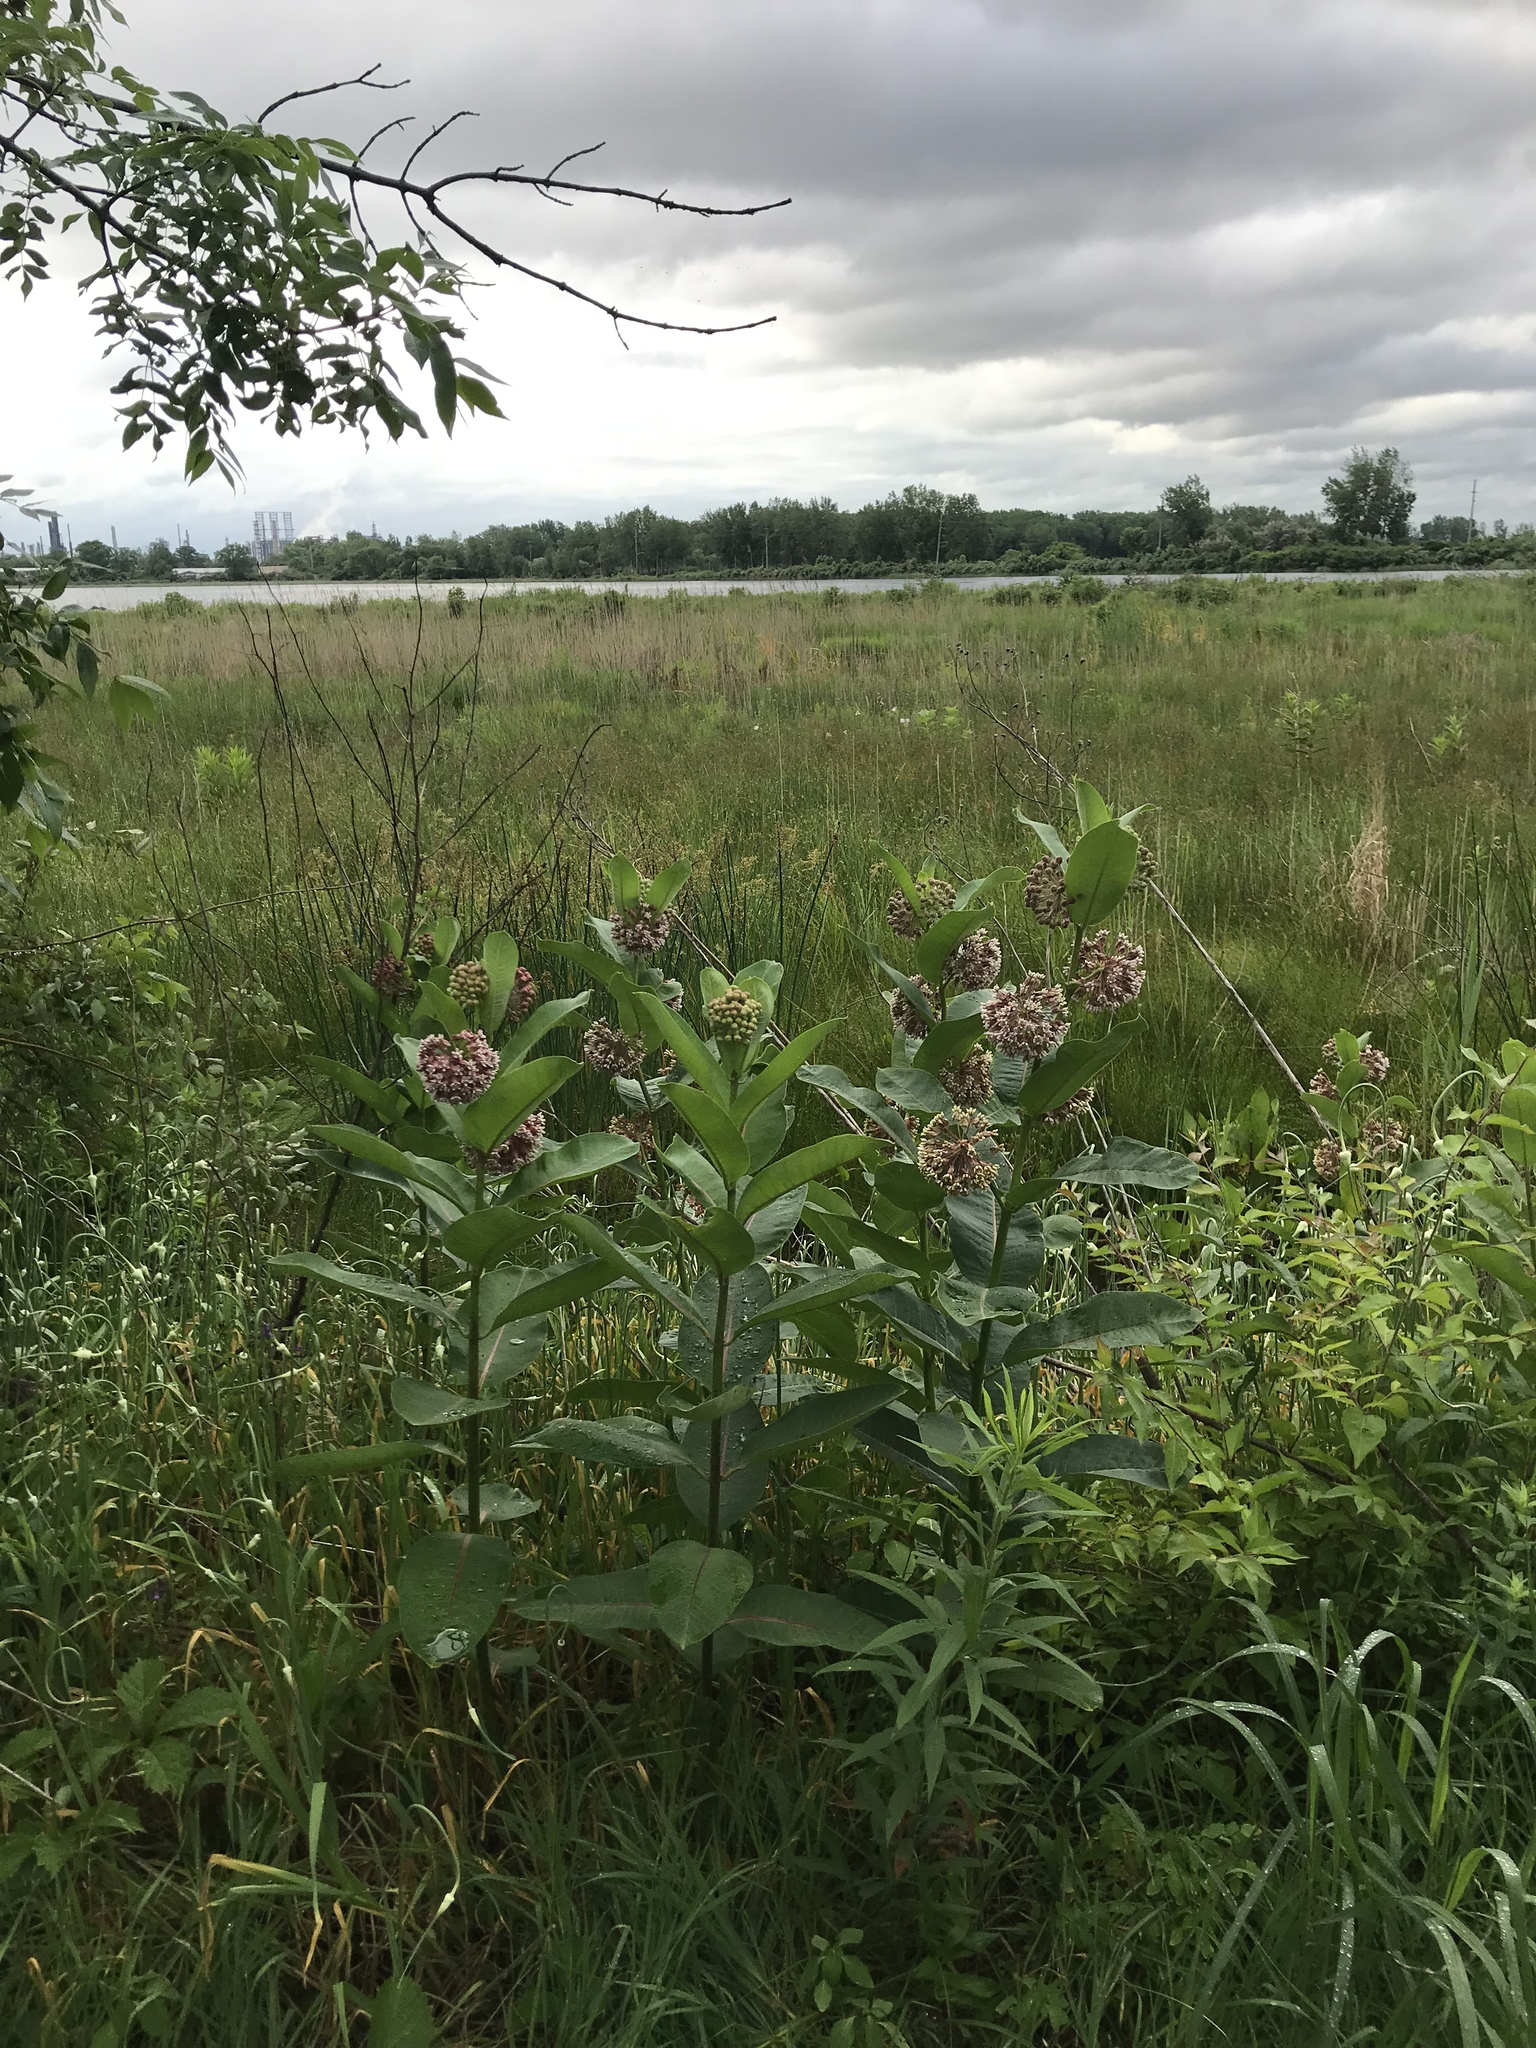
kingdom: Plantae
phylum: Tracheophyta
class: Magnoliopsida
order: Gentianales
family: Apocynaceae
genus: Asclepias
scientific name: Asclepias syriaca
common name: Common milkweed
